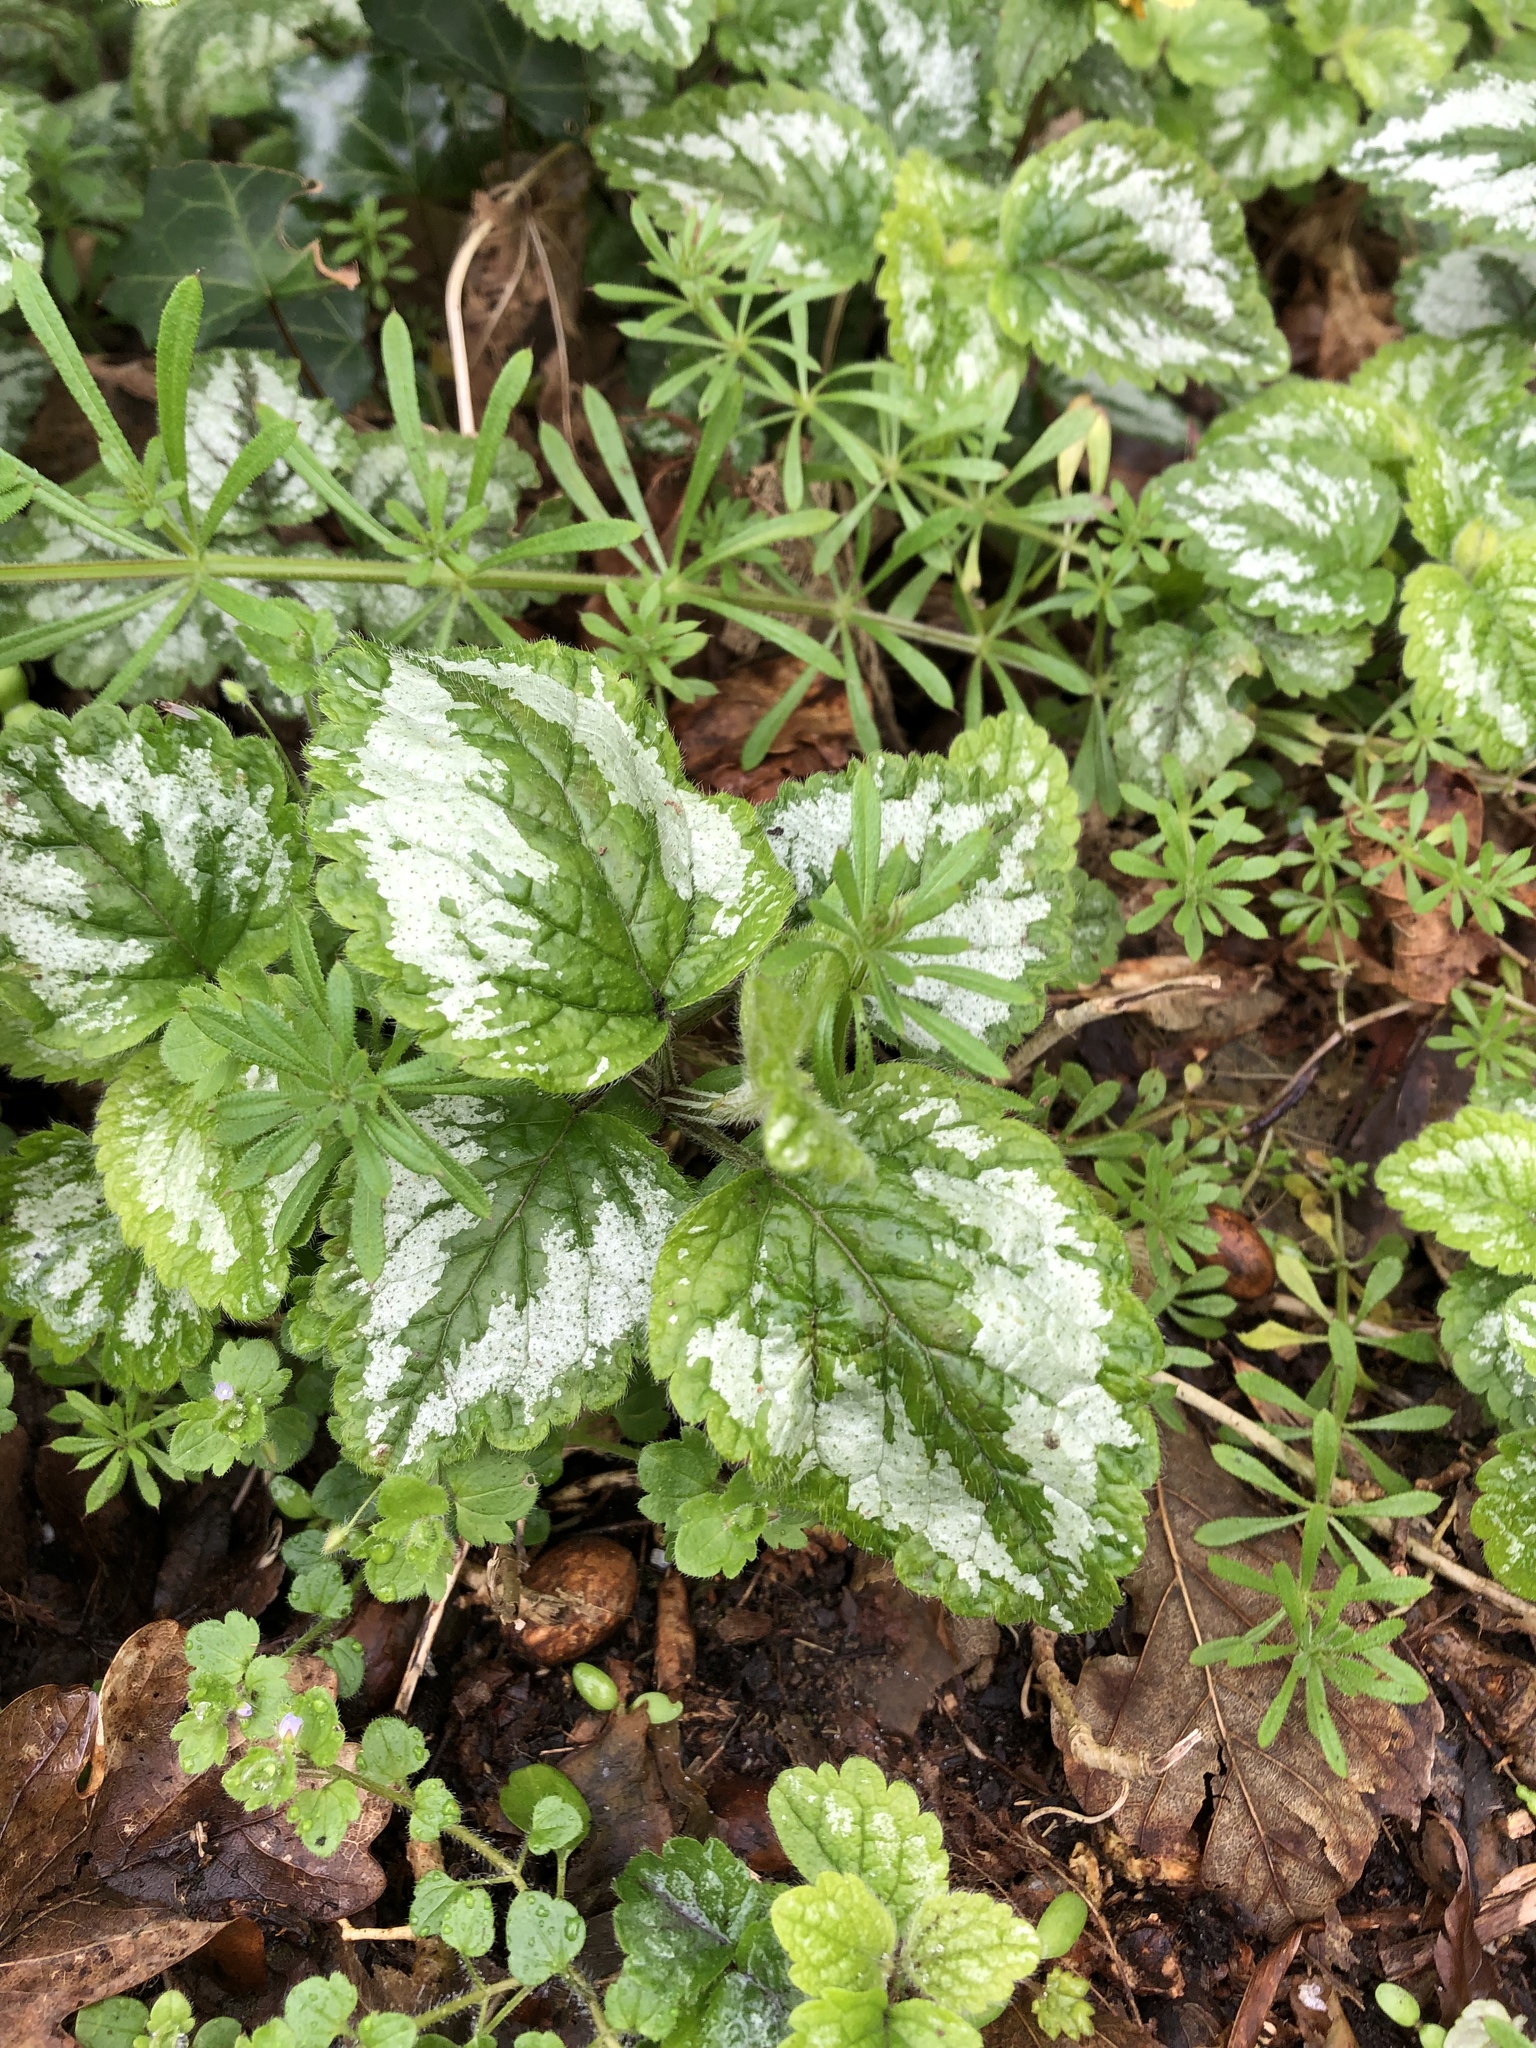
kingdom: Plantae
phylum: Tracheophyta
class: Magnoliopsida
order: Lamiales
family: Lamiaceae
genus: Lamium
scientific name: Lamium galeobdolon
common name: Yellow archangel
